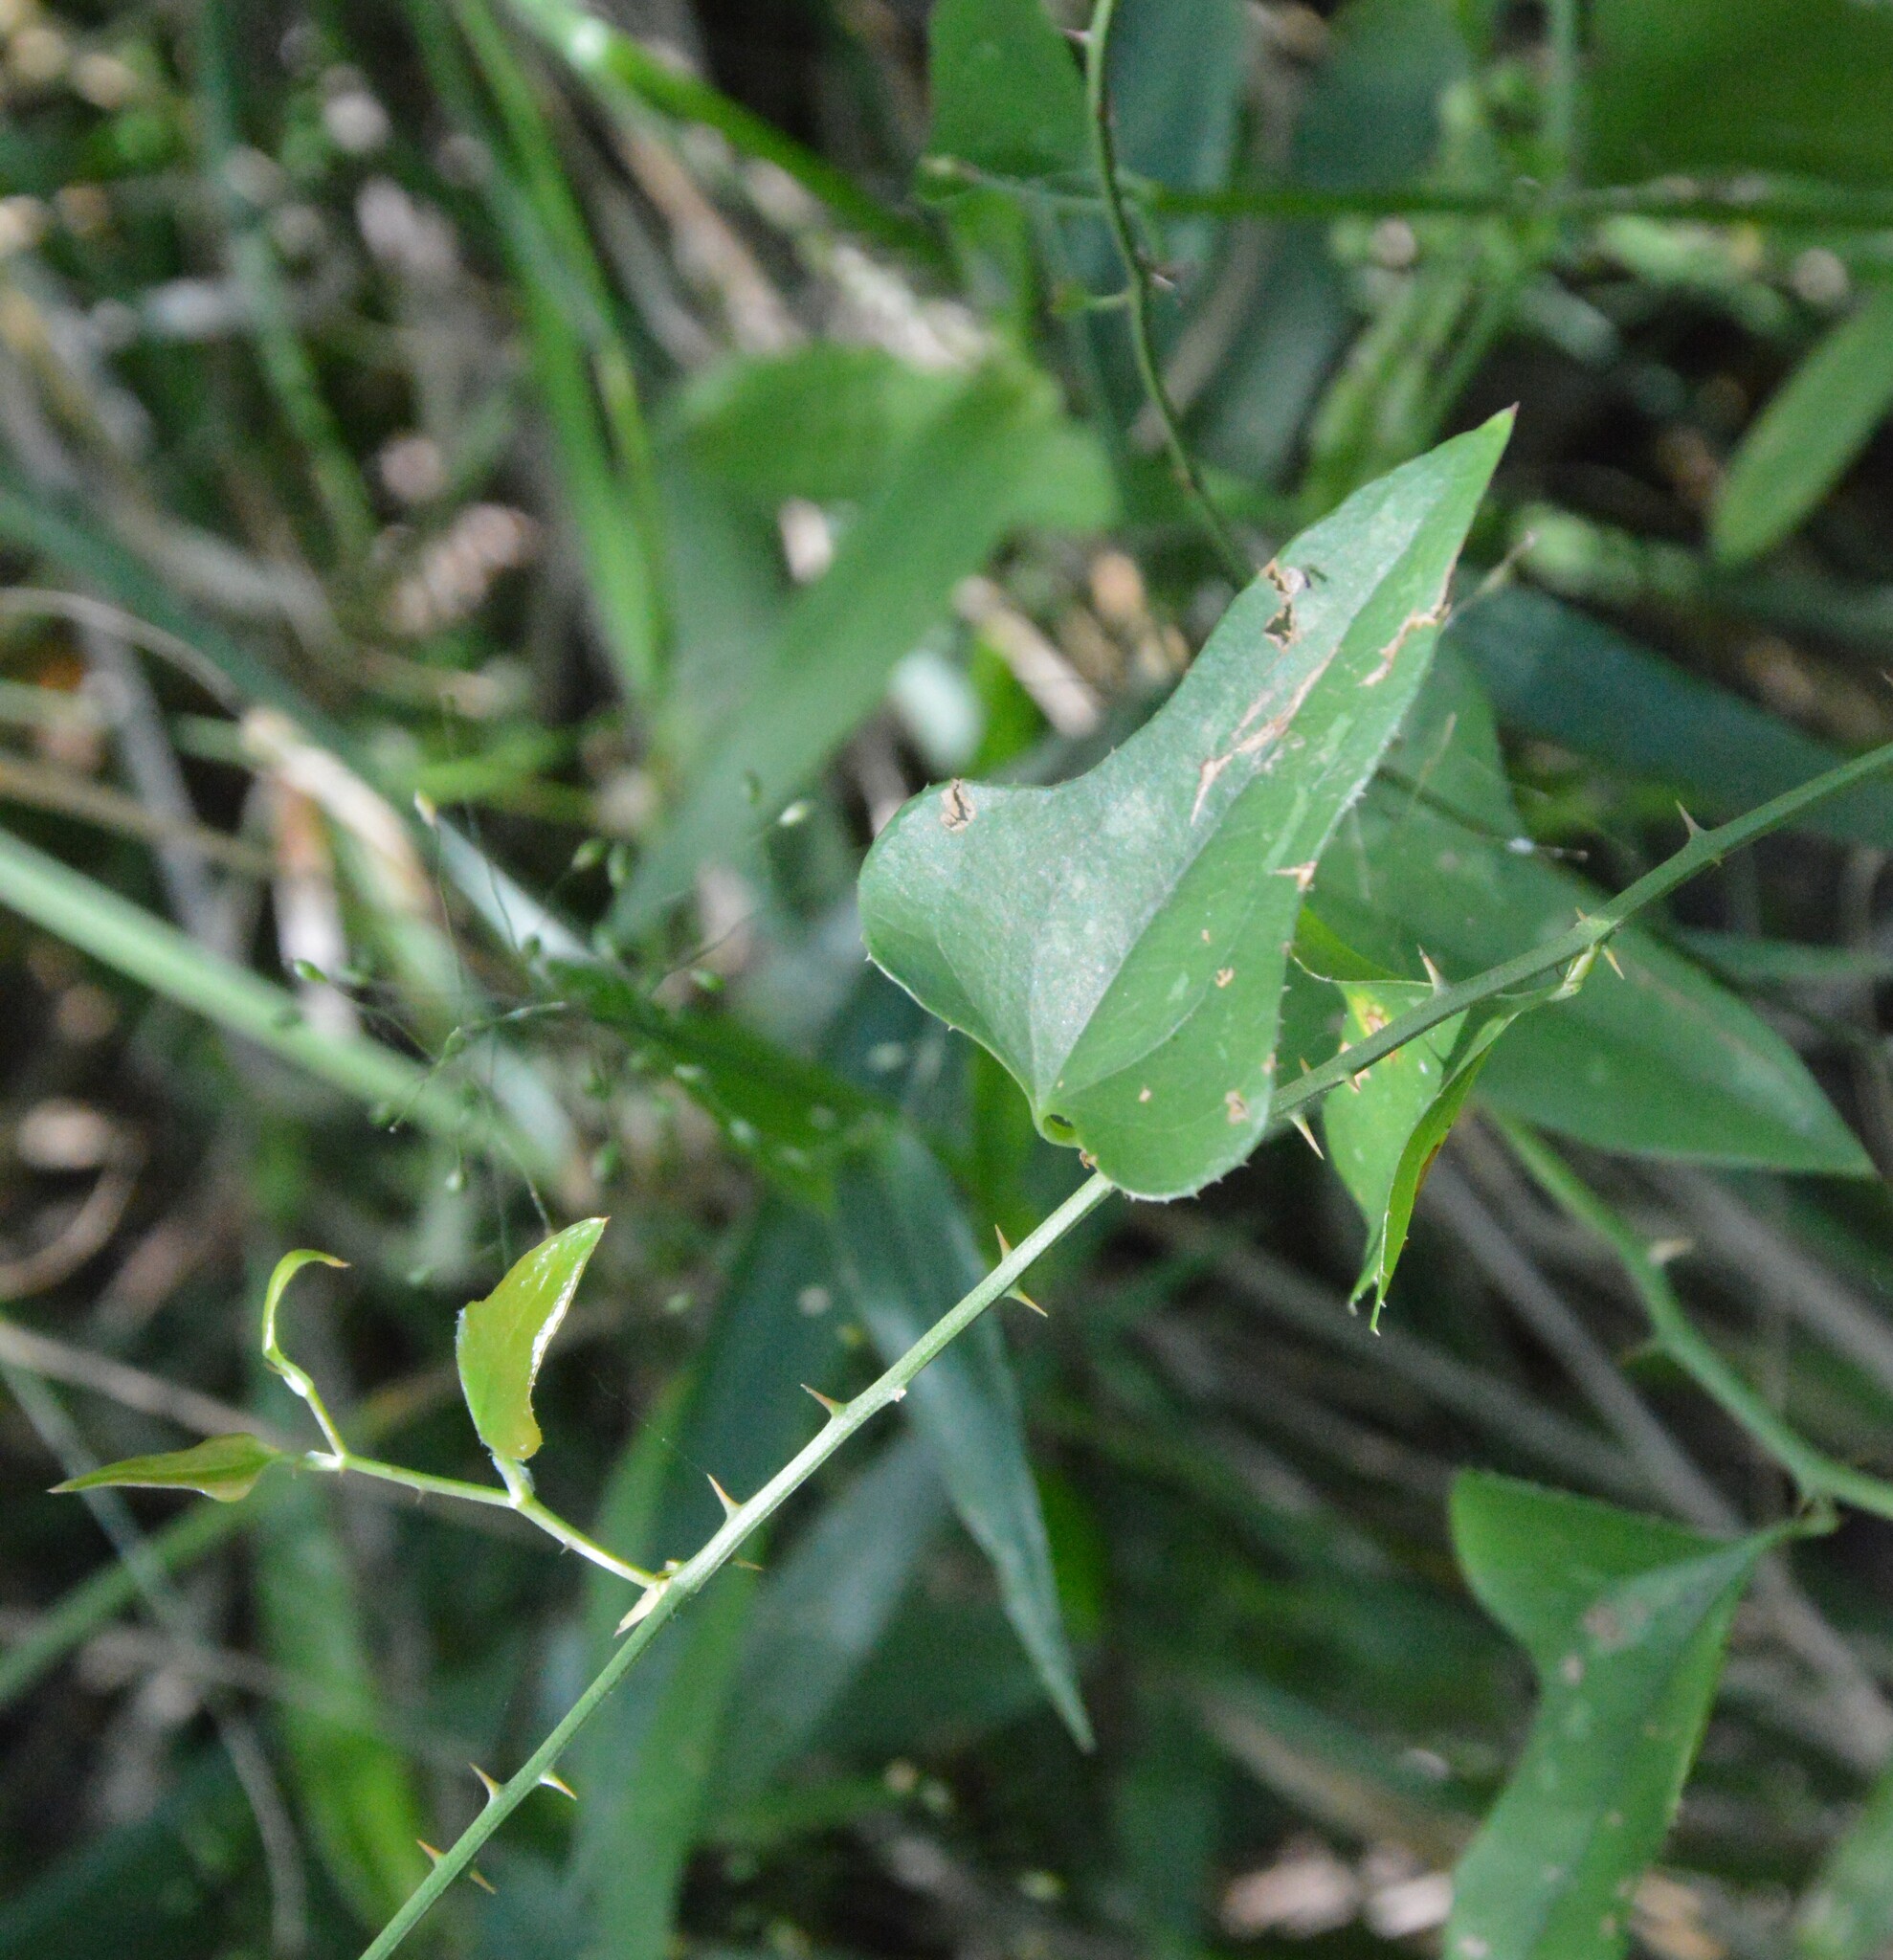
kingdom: Plantae
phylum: Tracheophyta
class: Liliopsida
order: Liliales
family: Smilacaceae
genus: Smilax
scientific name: Smilax bona-nox
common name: Catbrier
